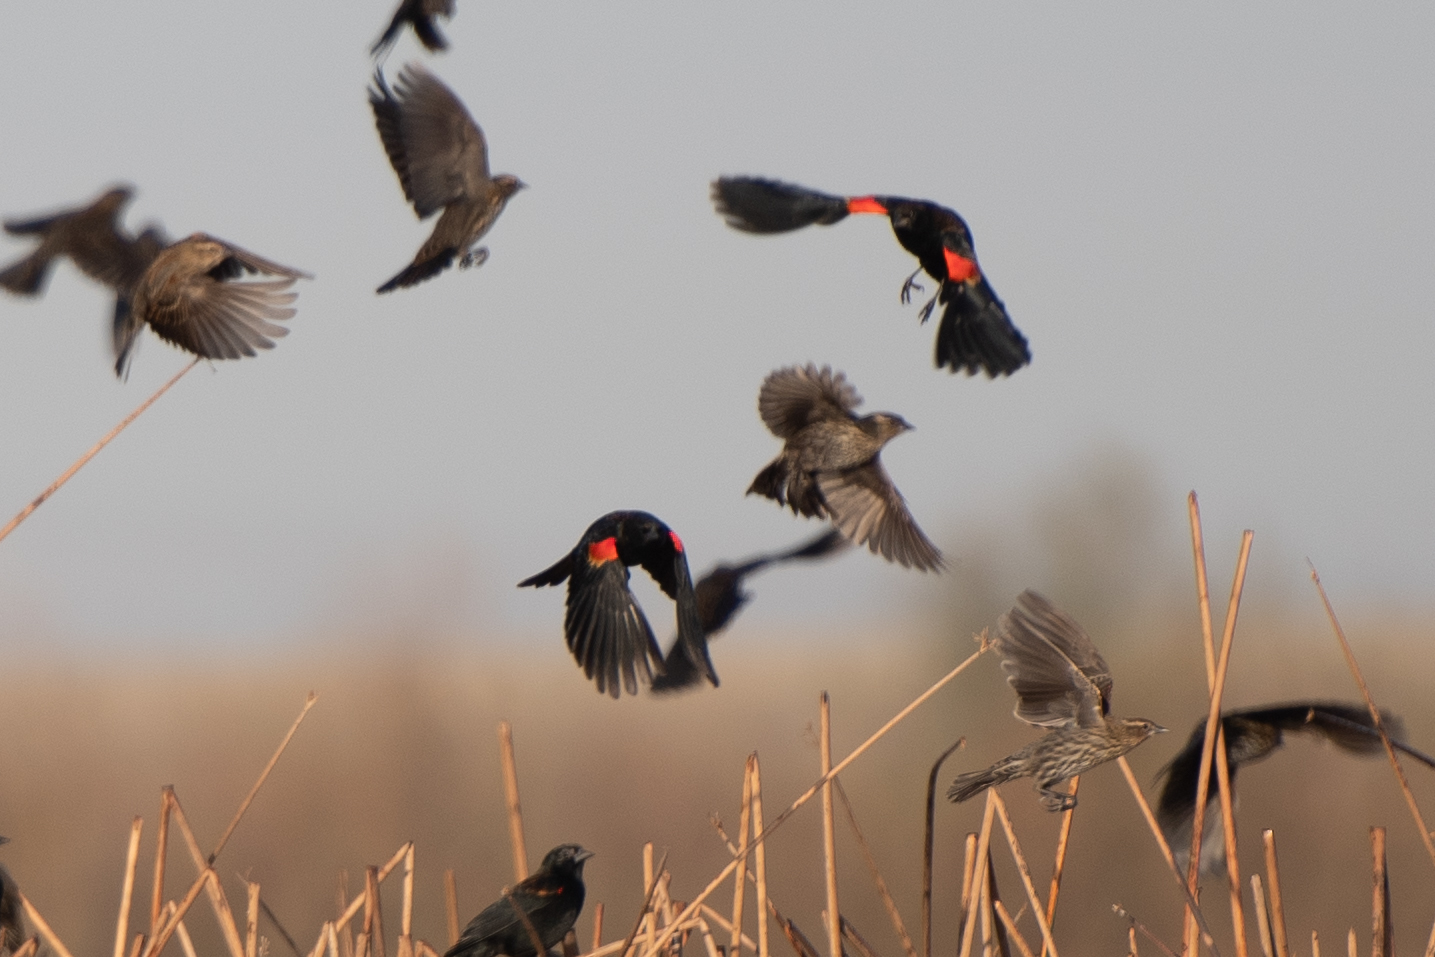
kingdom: Animalia
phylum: Chordata
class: Aves
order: Passeriformes
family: Icteridae
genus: Agelaius
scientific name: Agelaius phoeniceus
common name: Red-winged blackbird
